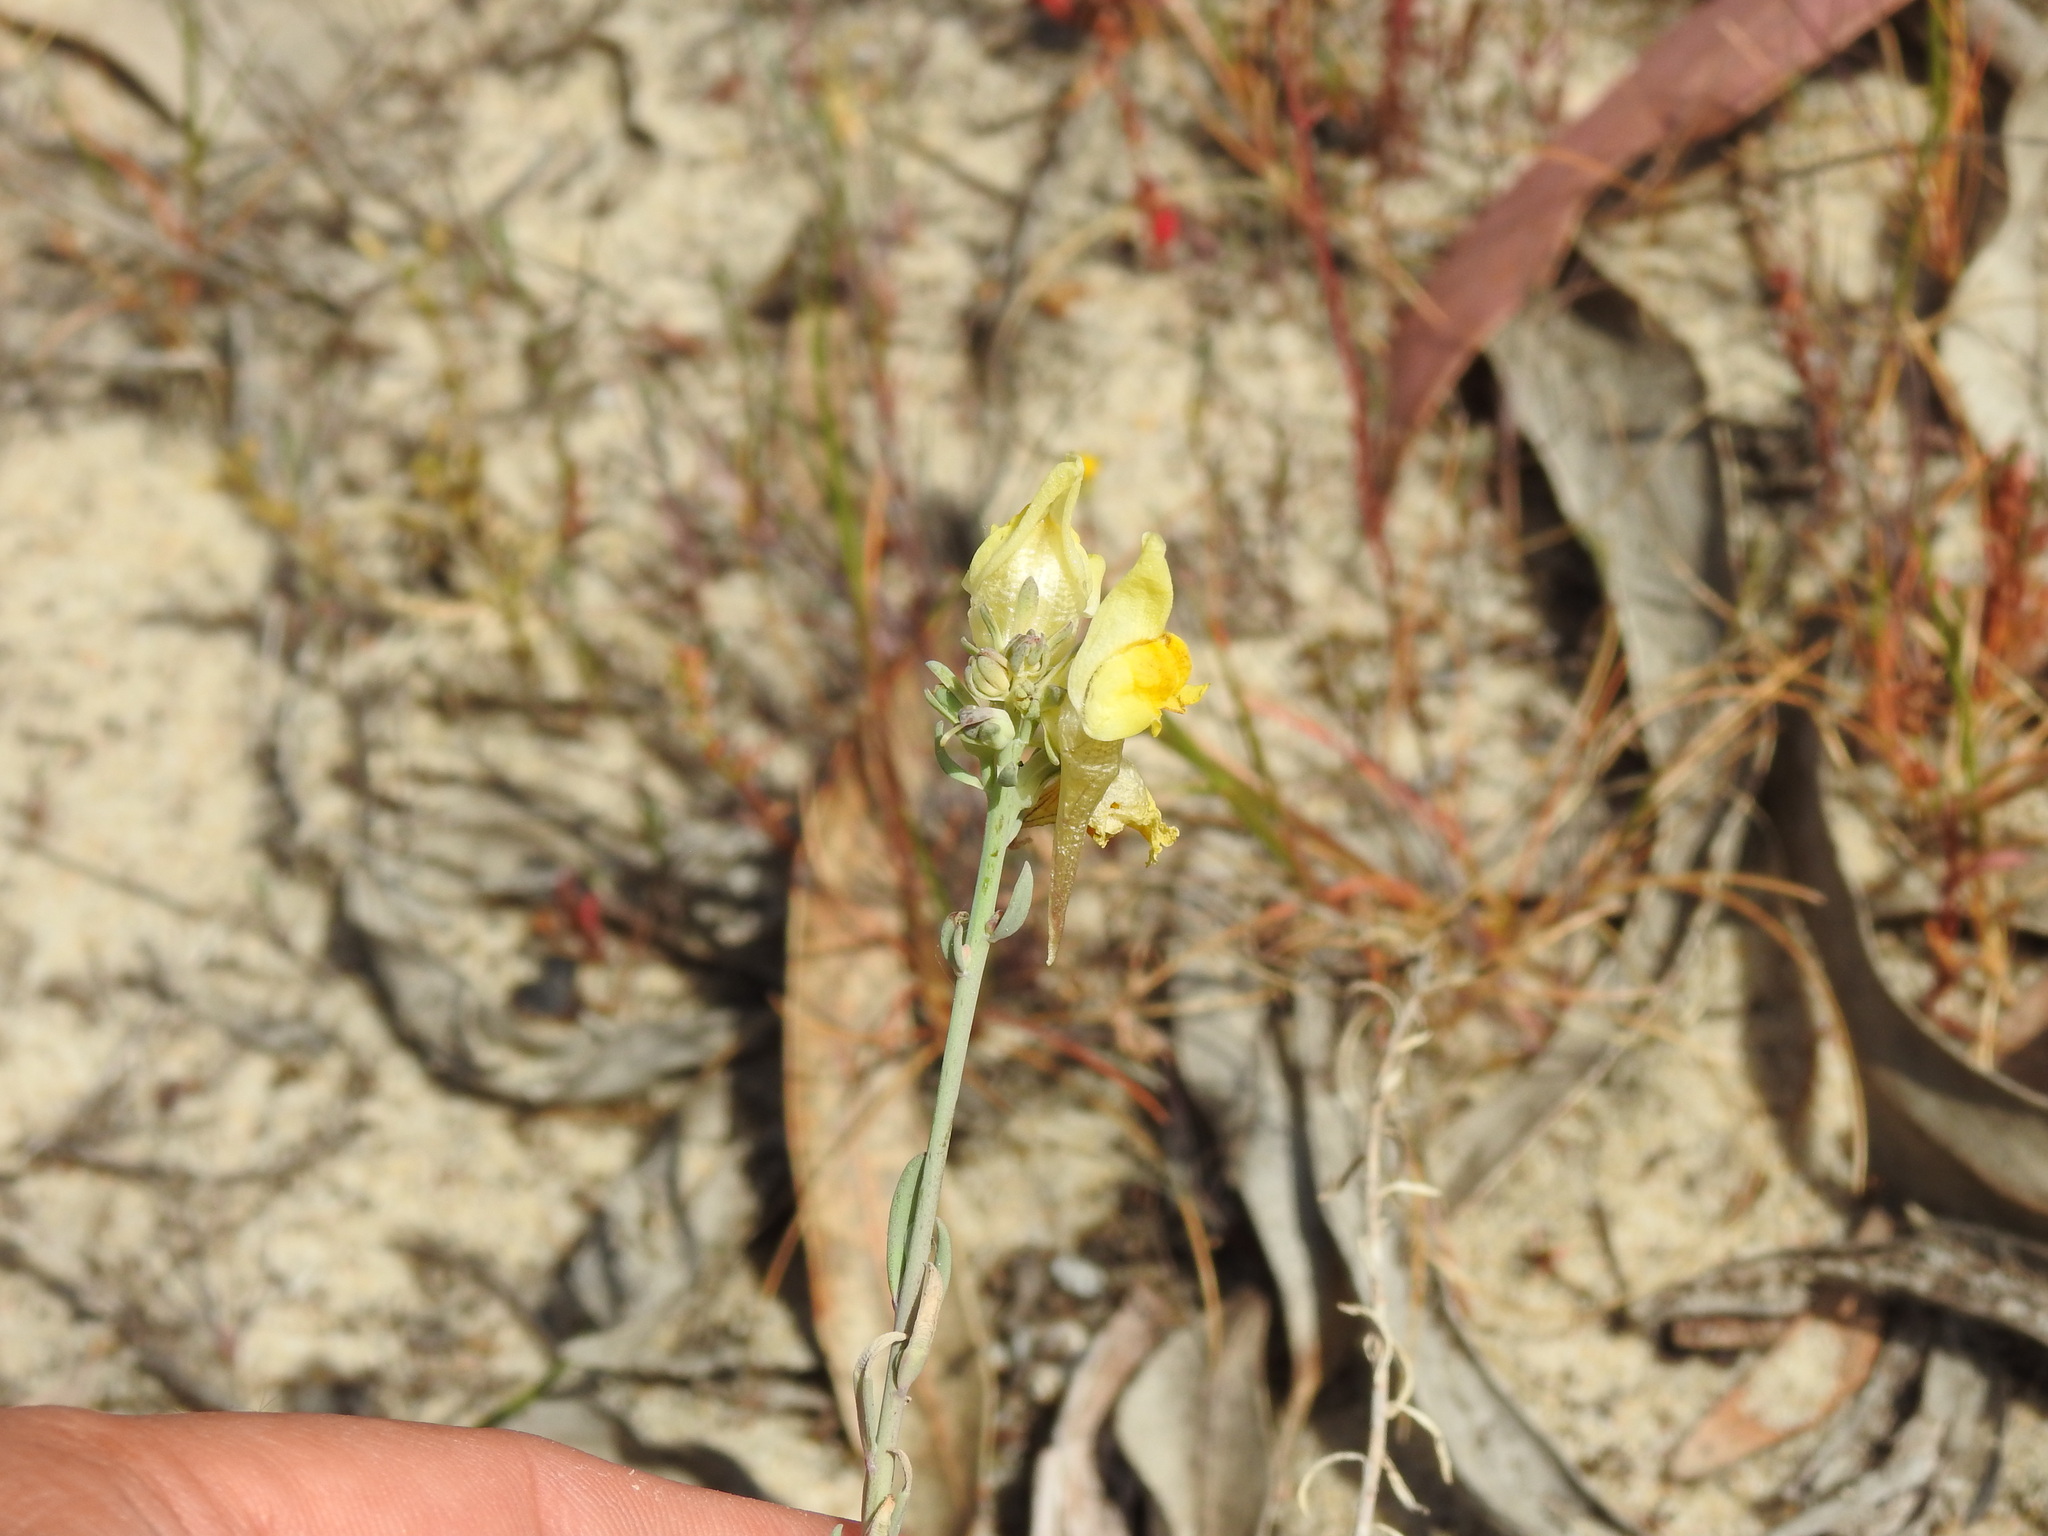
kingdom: Plantae
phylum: Tracheophyta
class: Magnoliopsida
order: Lamiales
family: Plantaginaceae
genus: Linaria
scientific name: Linaria polygalifolia
